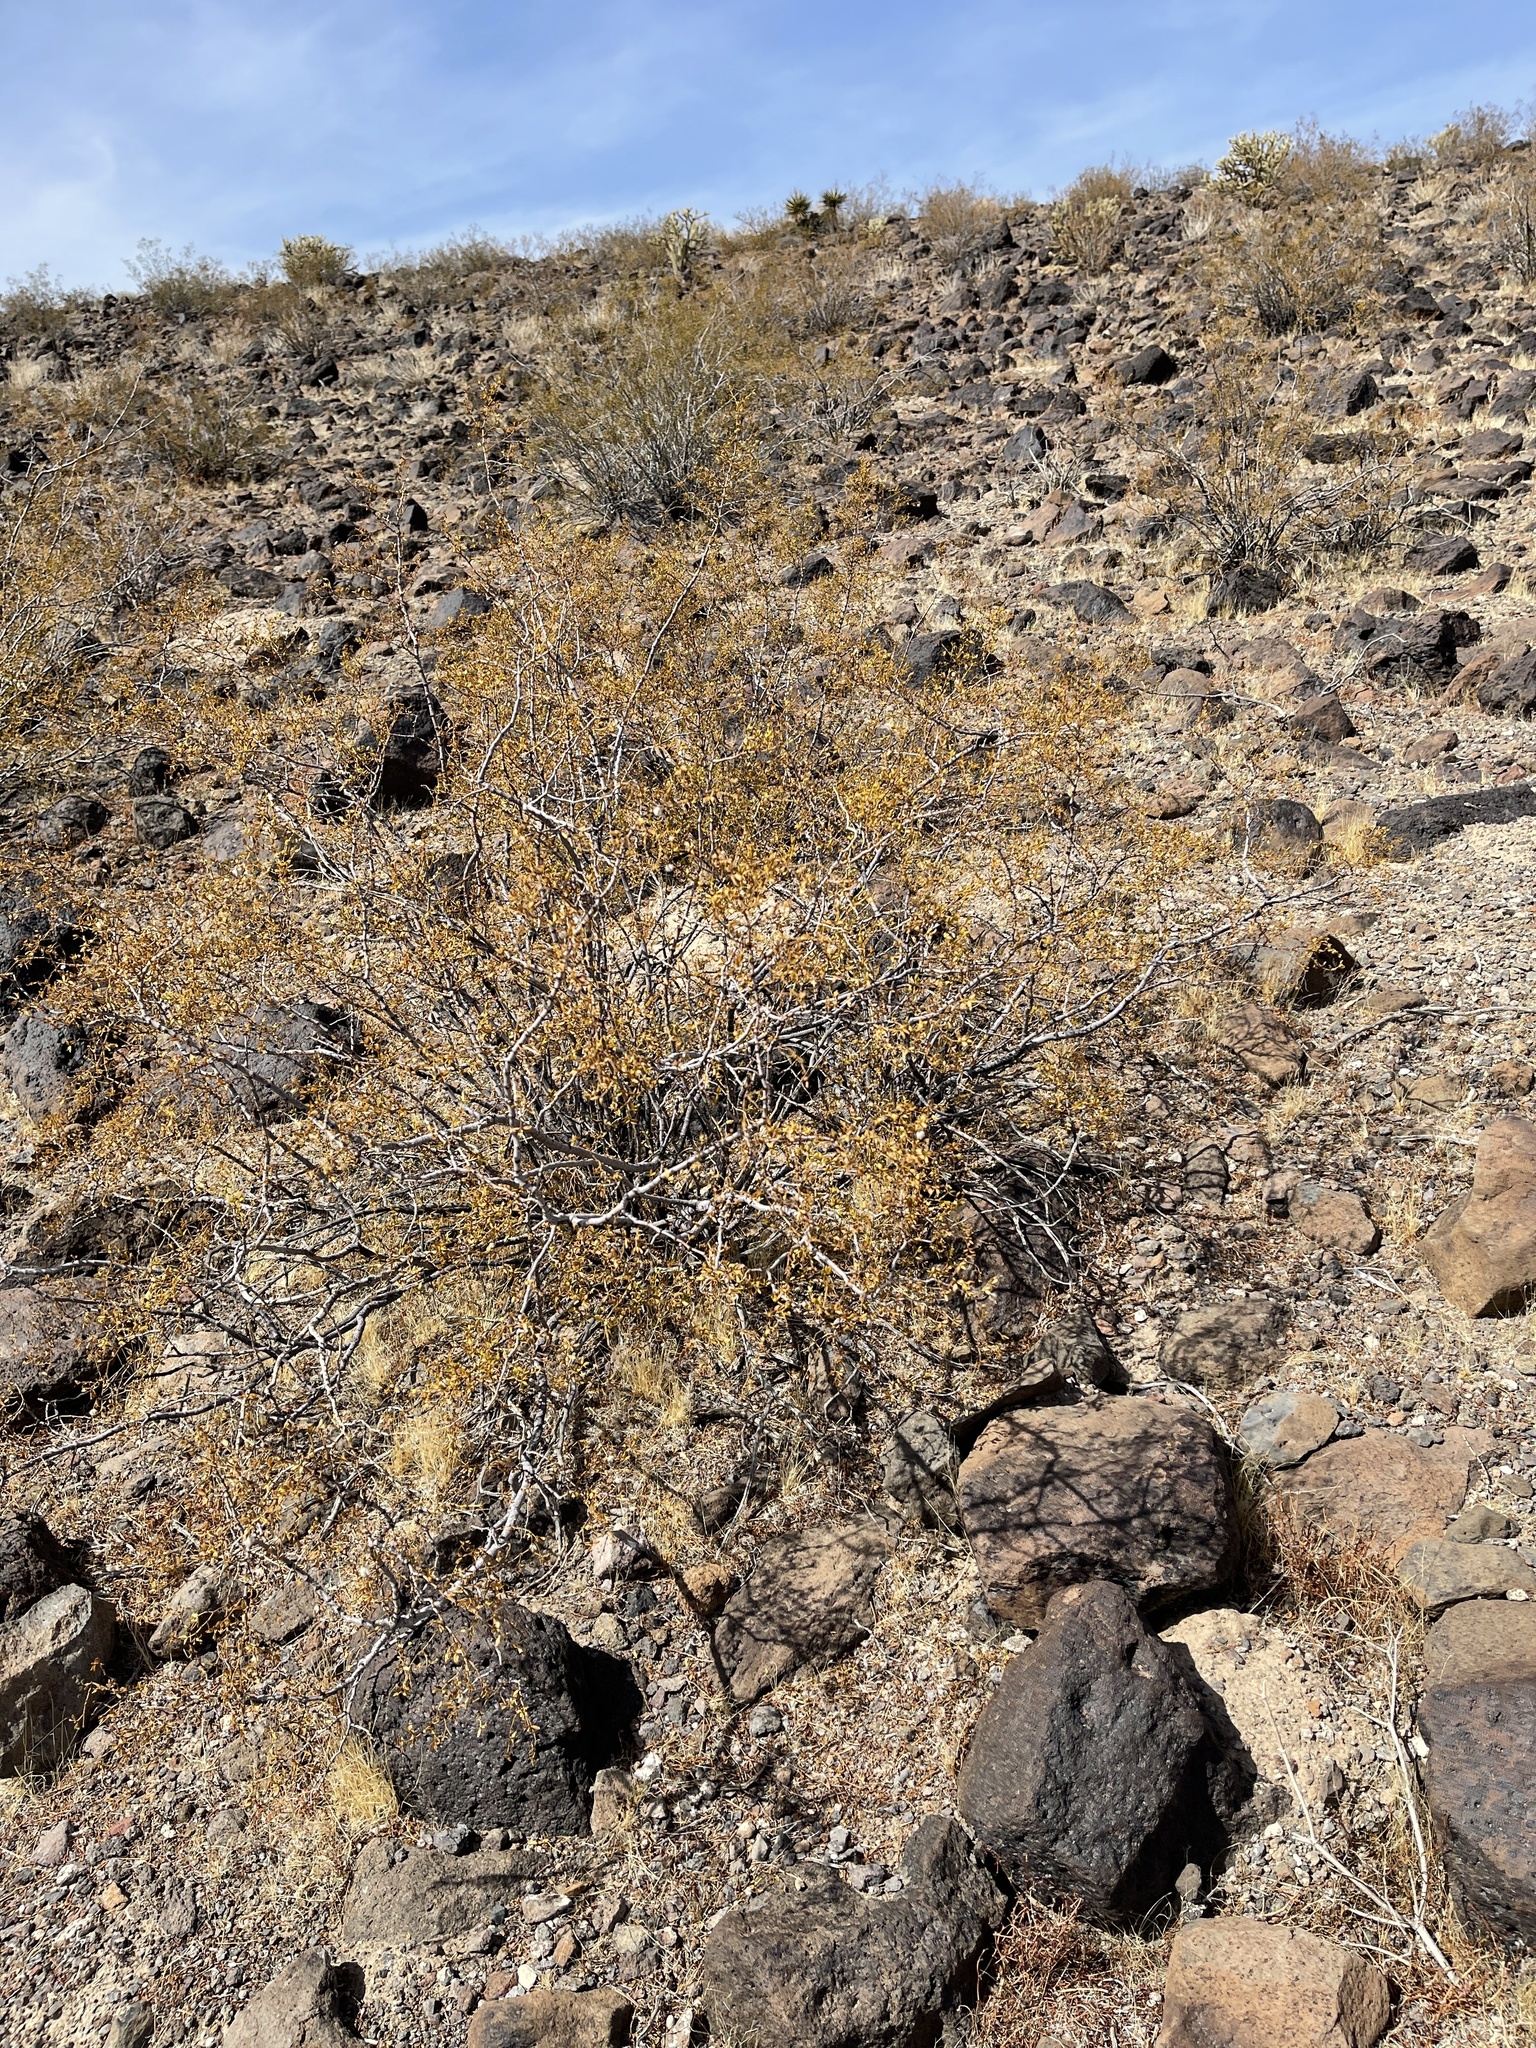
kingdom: Plantae
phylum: Tracheophyta
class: Magnoliopsida
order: Zygophyllales
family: Zygophyllaceae
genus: Larrea
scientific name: Larrea tridentata
